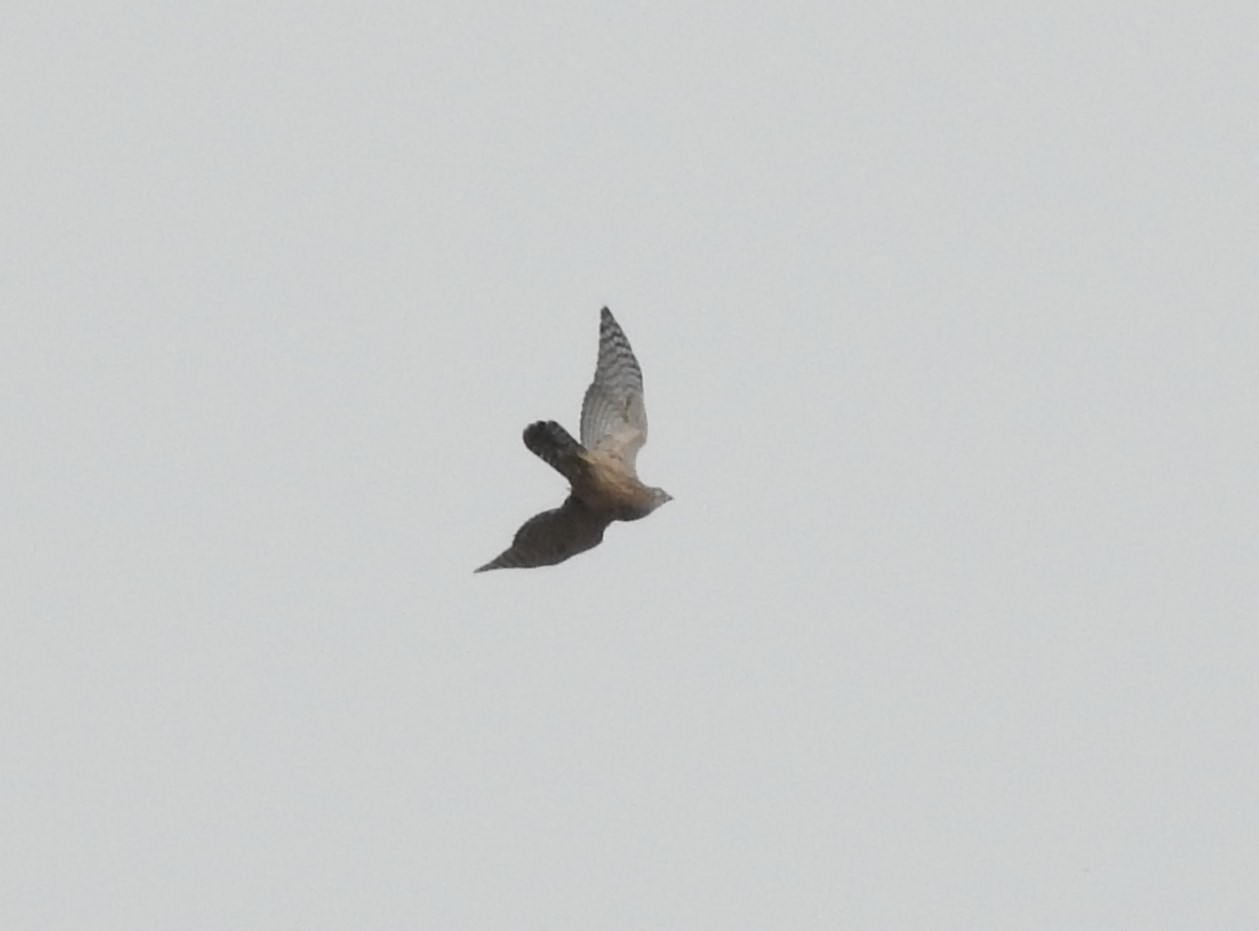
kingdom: Animalia
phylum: Chordata
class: Aves
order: Accipitriformes
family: Accipitridae
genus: Accipiter
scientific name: Accipiter gentilis
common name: Northern goshawk
